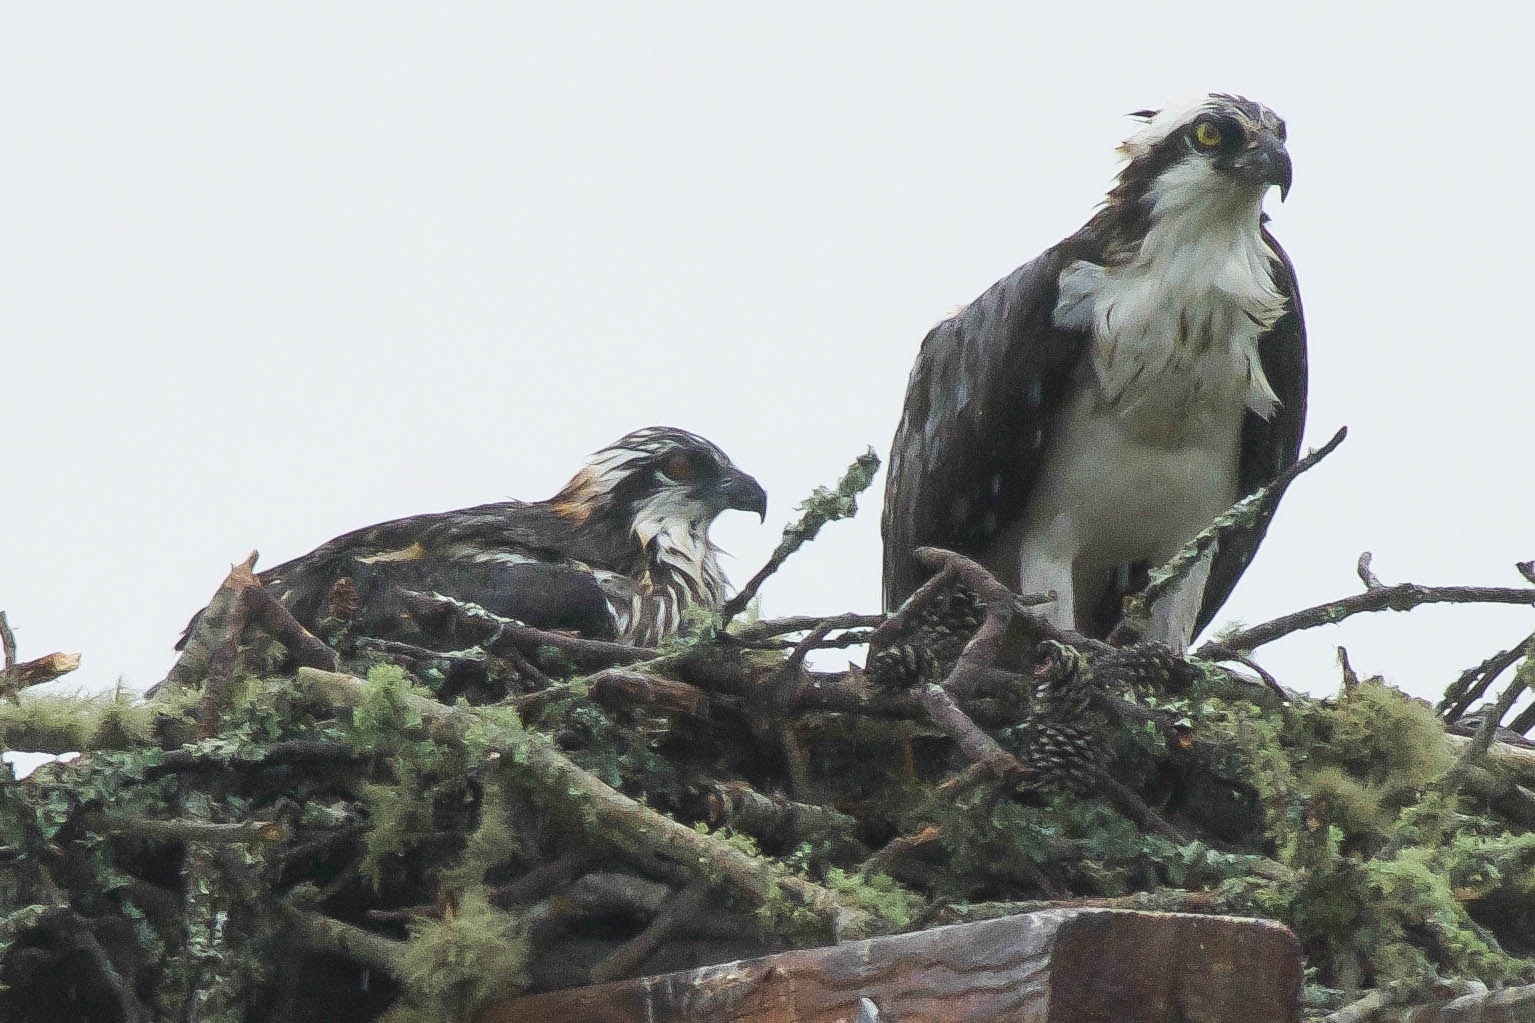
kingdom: Animalia
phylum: Chordata
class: Aves
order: Accipitriformes
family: Pandionidae
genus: Pandion
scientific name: Pandion haliaetus
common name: Osprey
